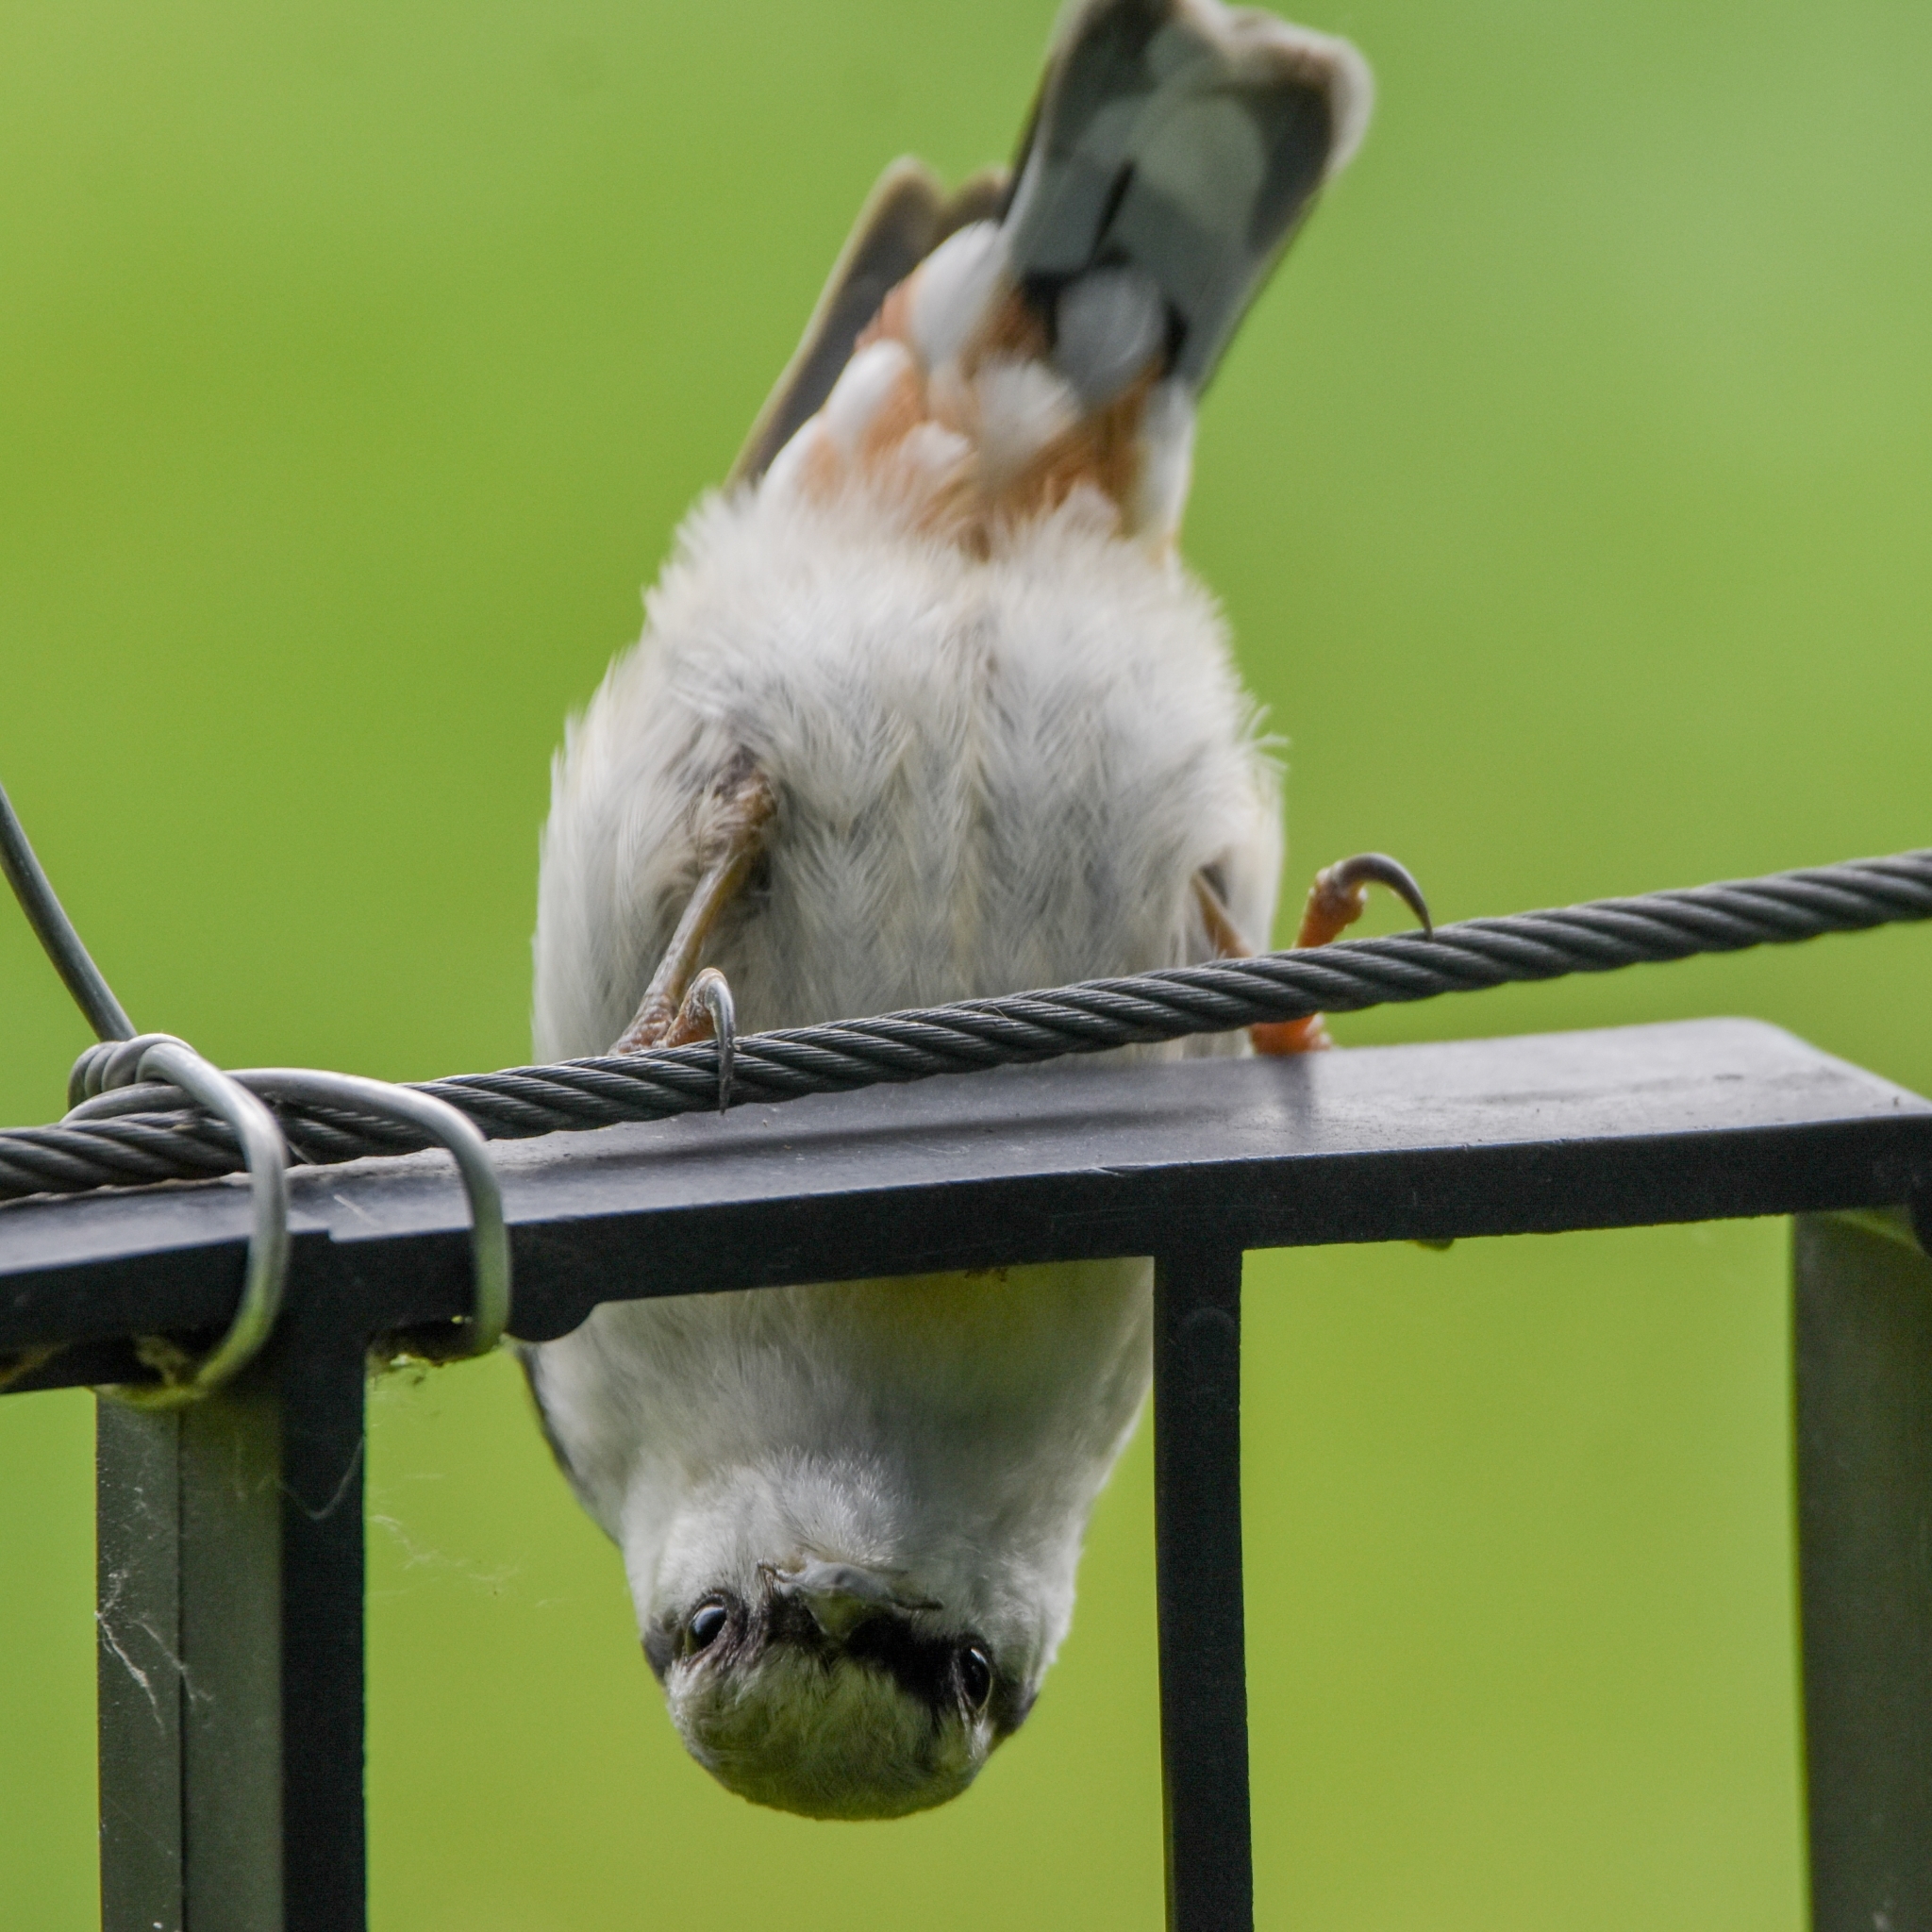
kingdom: Animalia
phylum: Chordata
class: Aves
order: Passeriformes
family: Sittidae
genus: Sitta
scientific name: Sitta europaea
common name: Eurasian nuthatch
